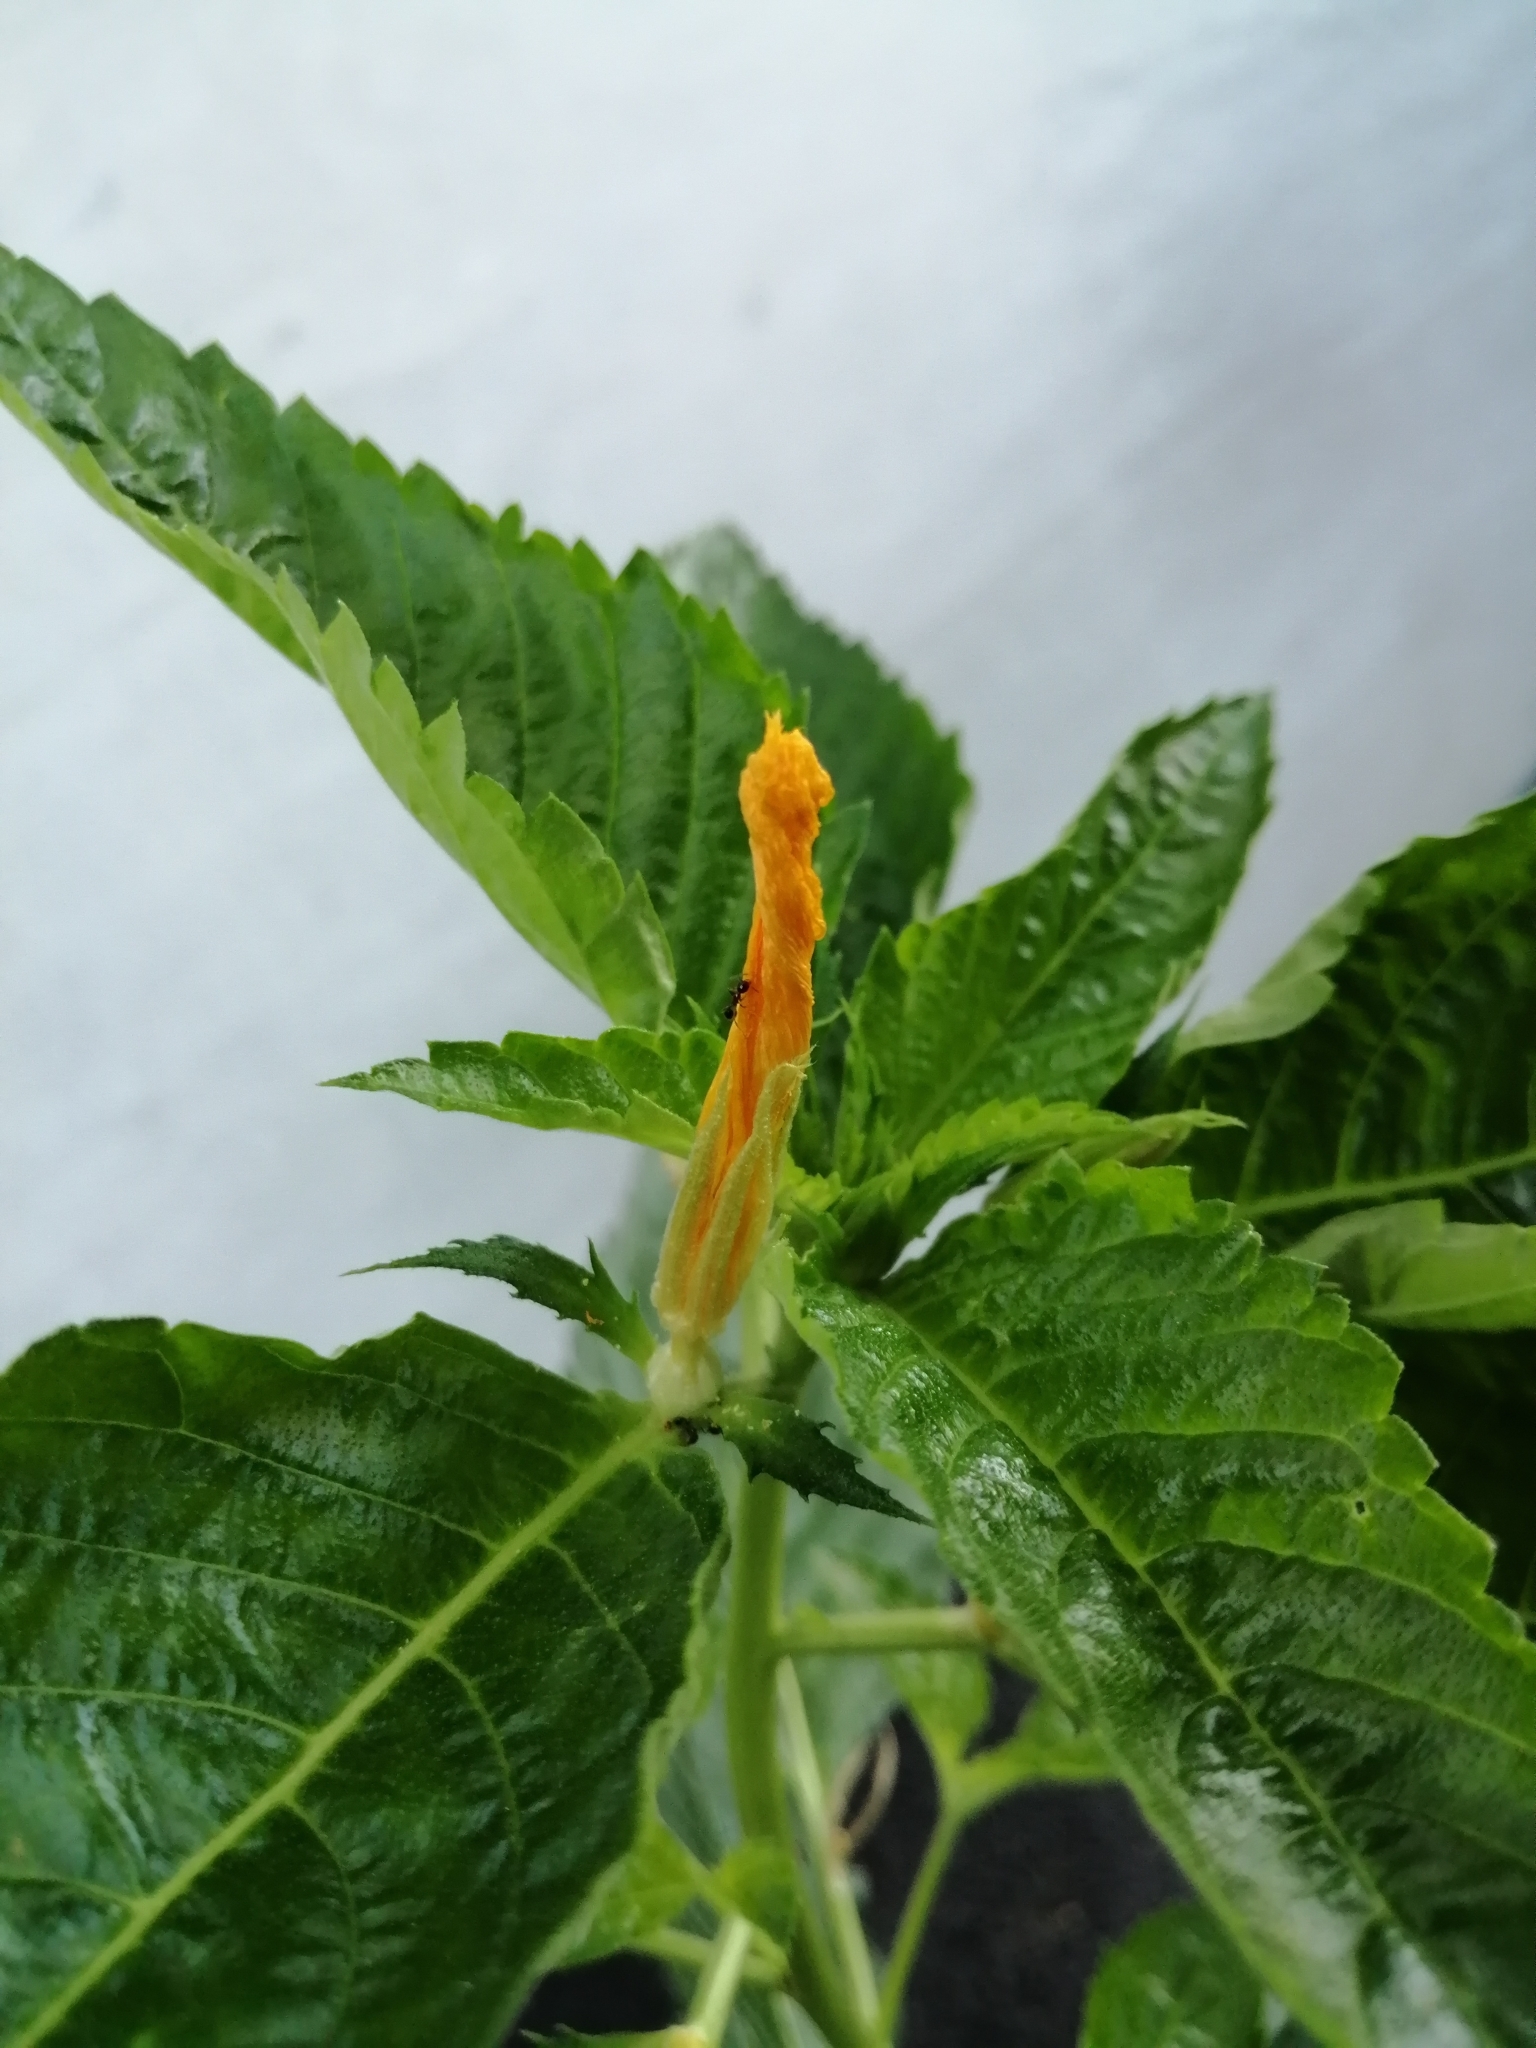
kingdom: Plantae
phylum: Tracheophyta
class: Magnoliopsida
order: Malpighiales
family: Turneraceae
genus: Turnera
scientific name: Turnera ulmifolia
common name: Ramgoat dashalong
